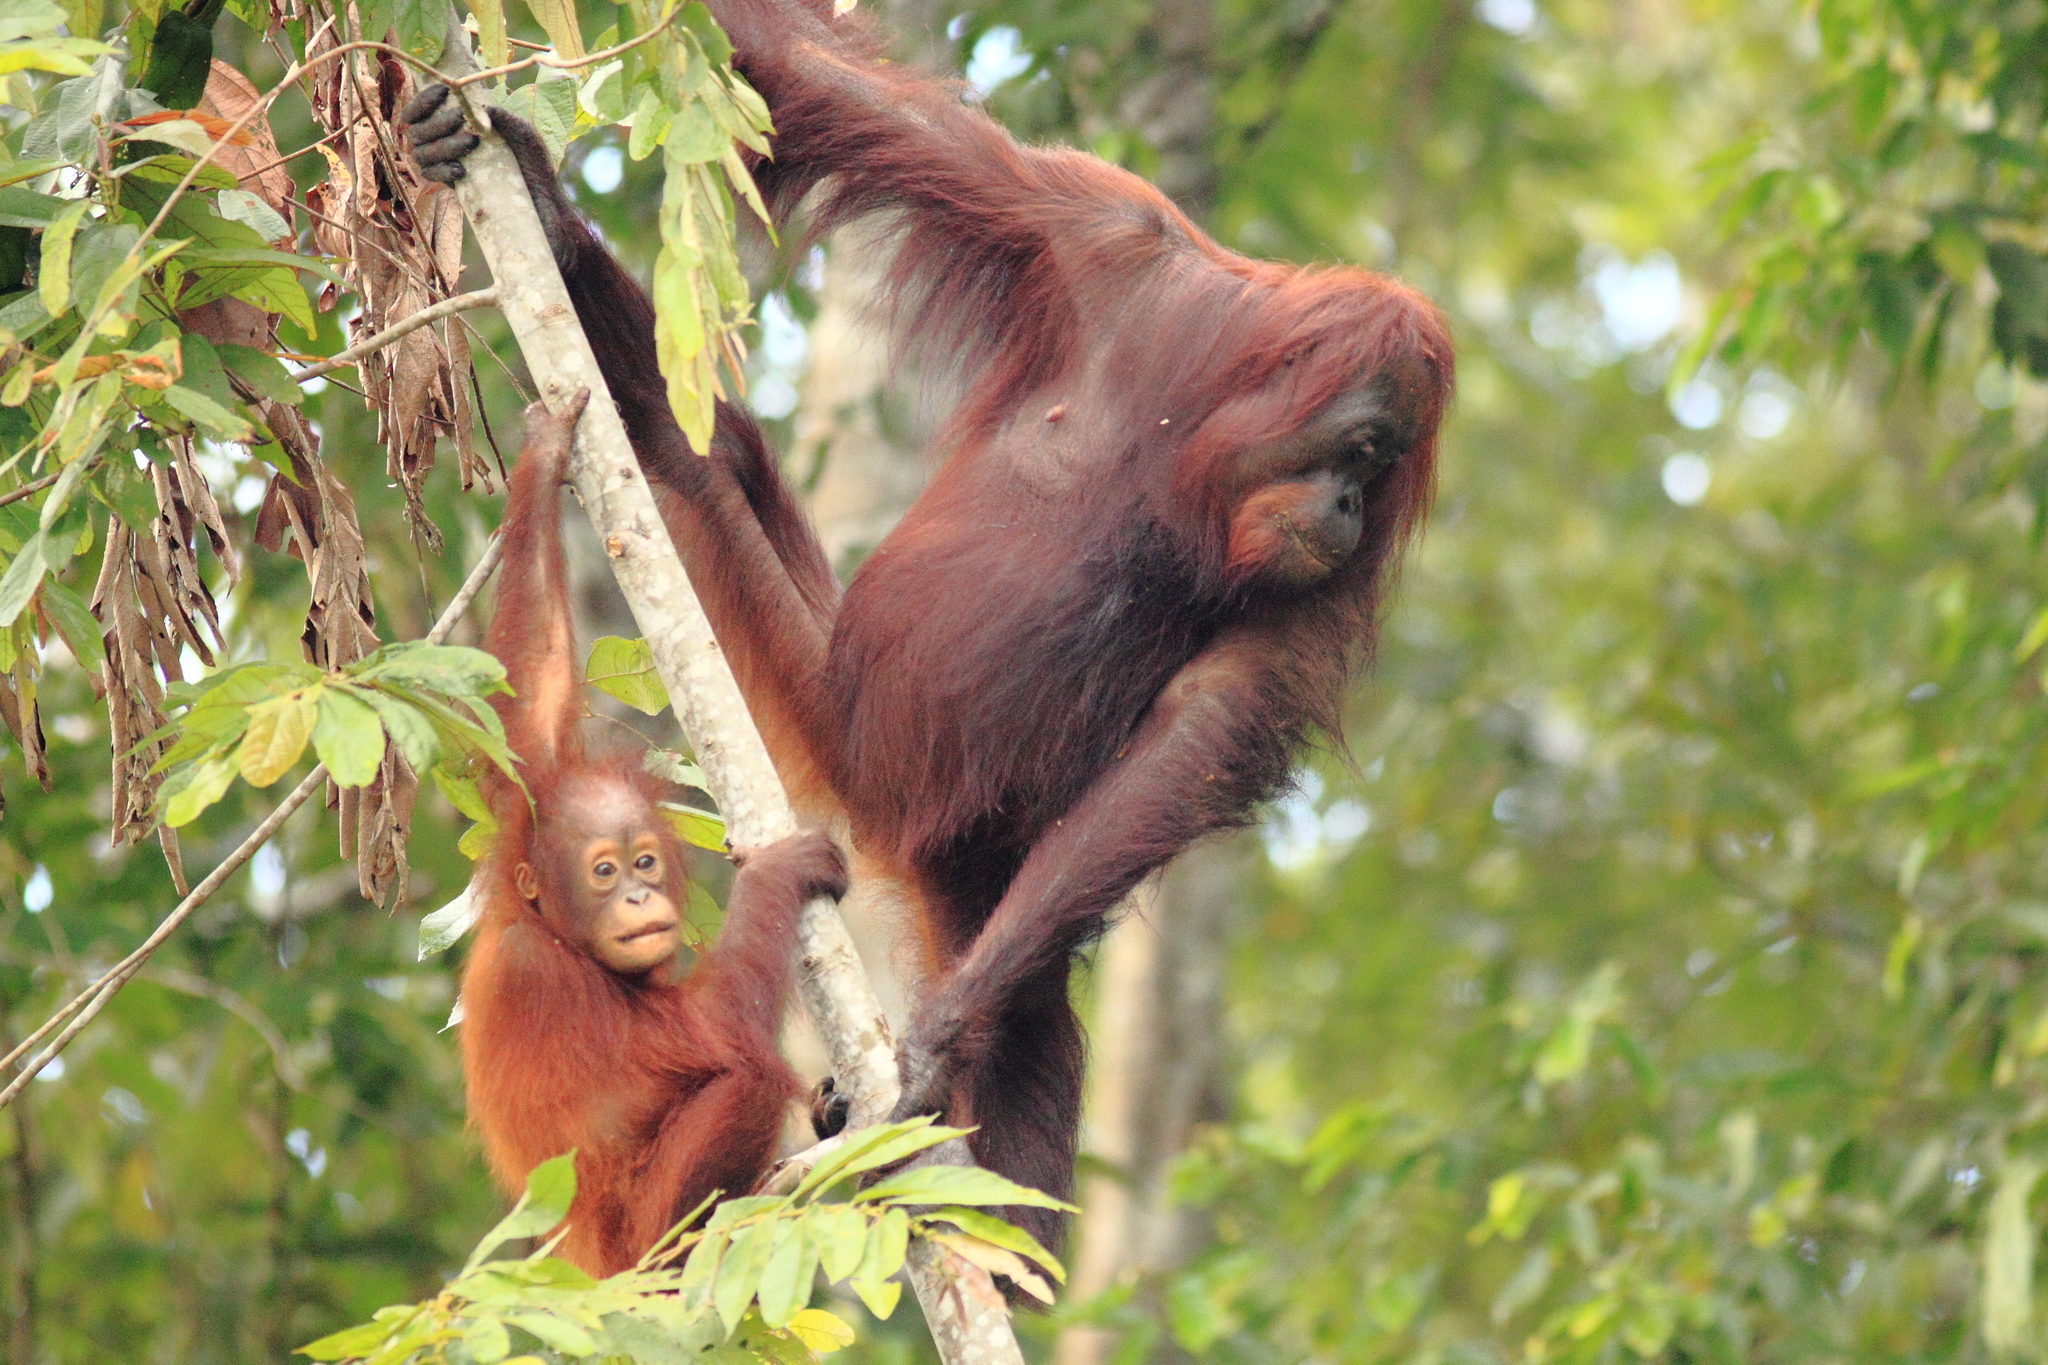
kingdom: Animalia
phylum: Chordata
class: Mammalia
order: Primates
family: Hominidae
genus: Pongo
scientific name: Pongo pygmaeus
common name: Bornean orangutan
